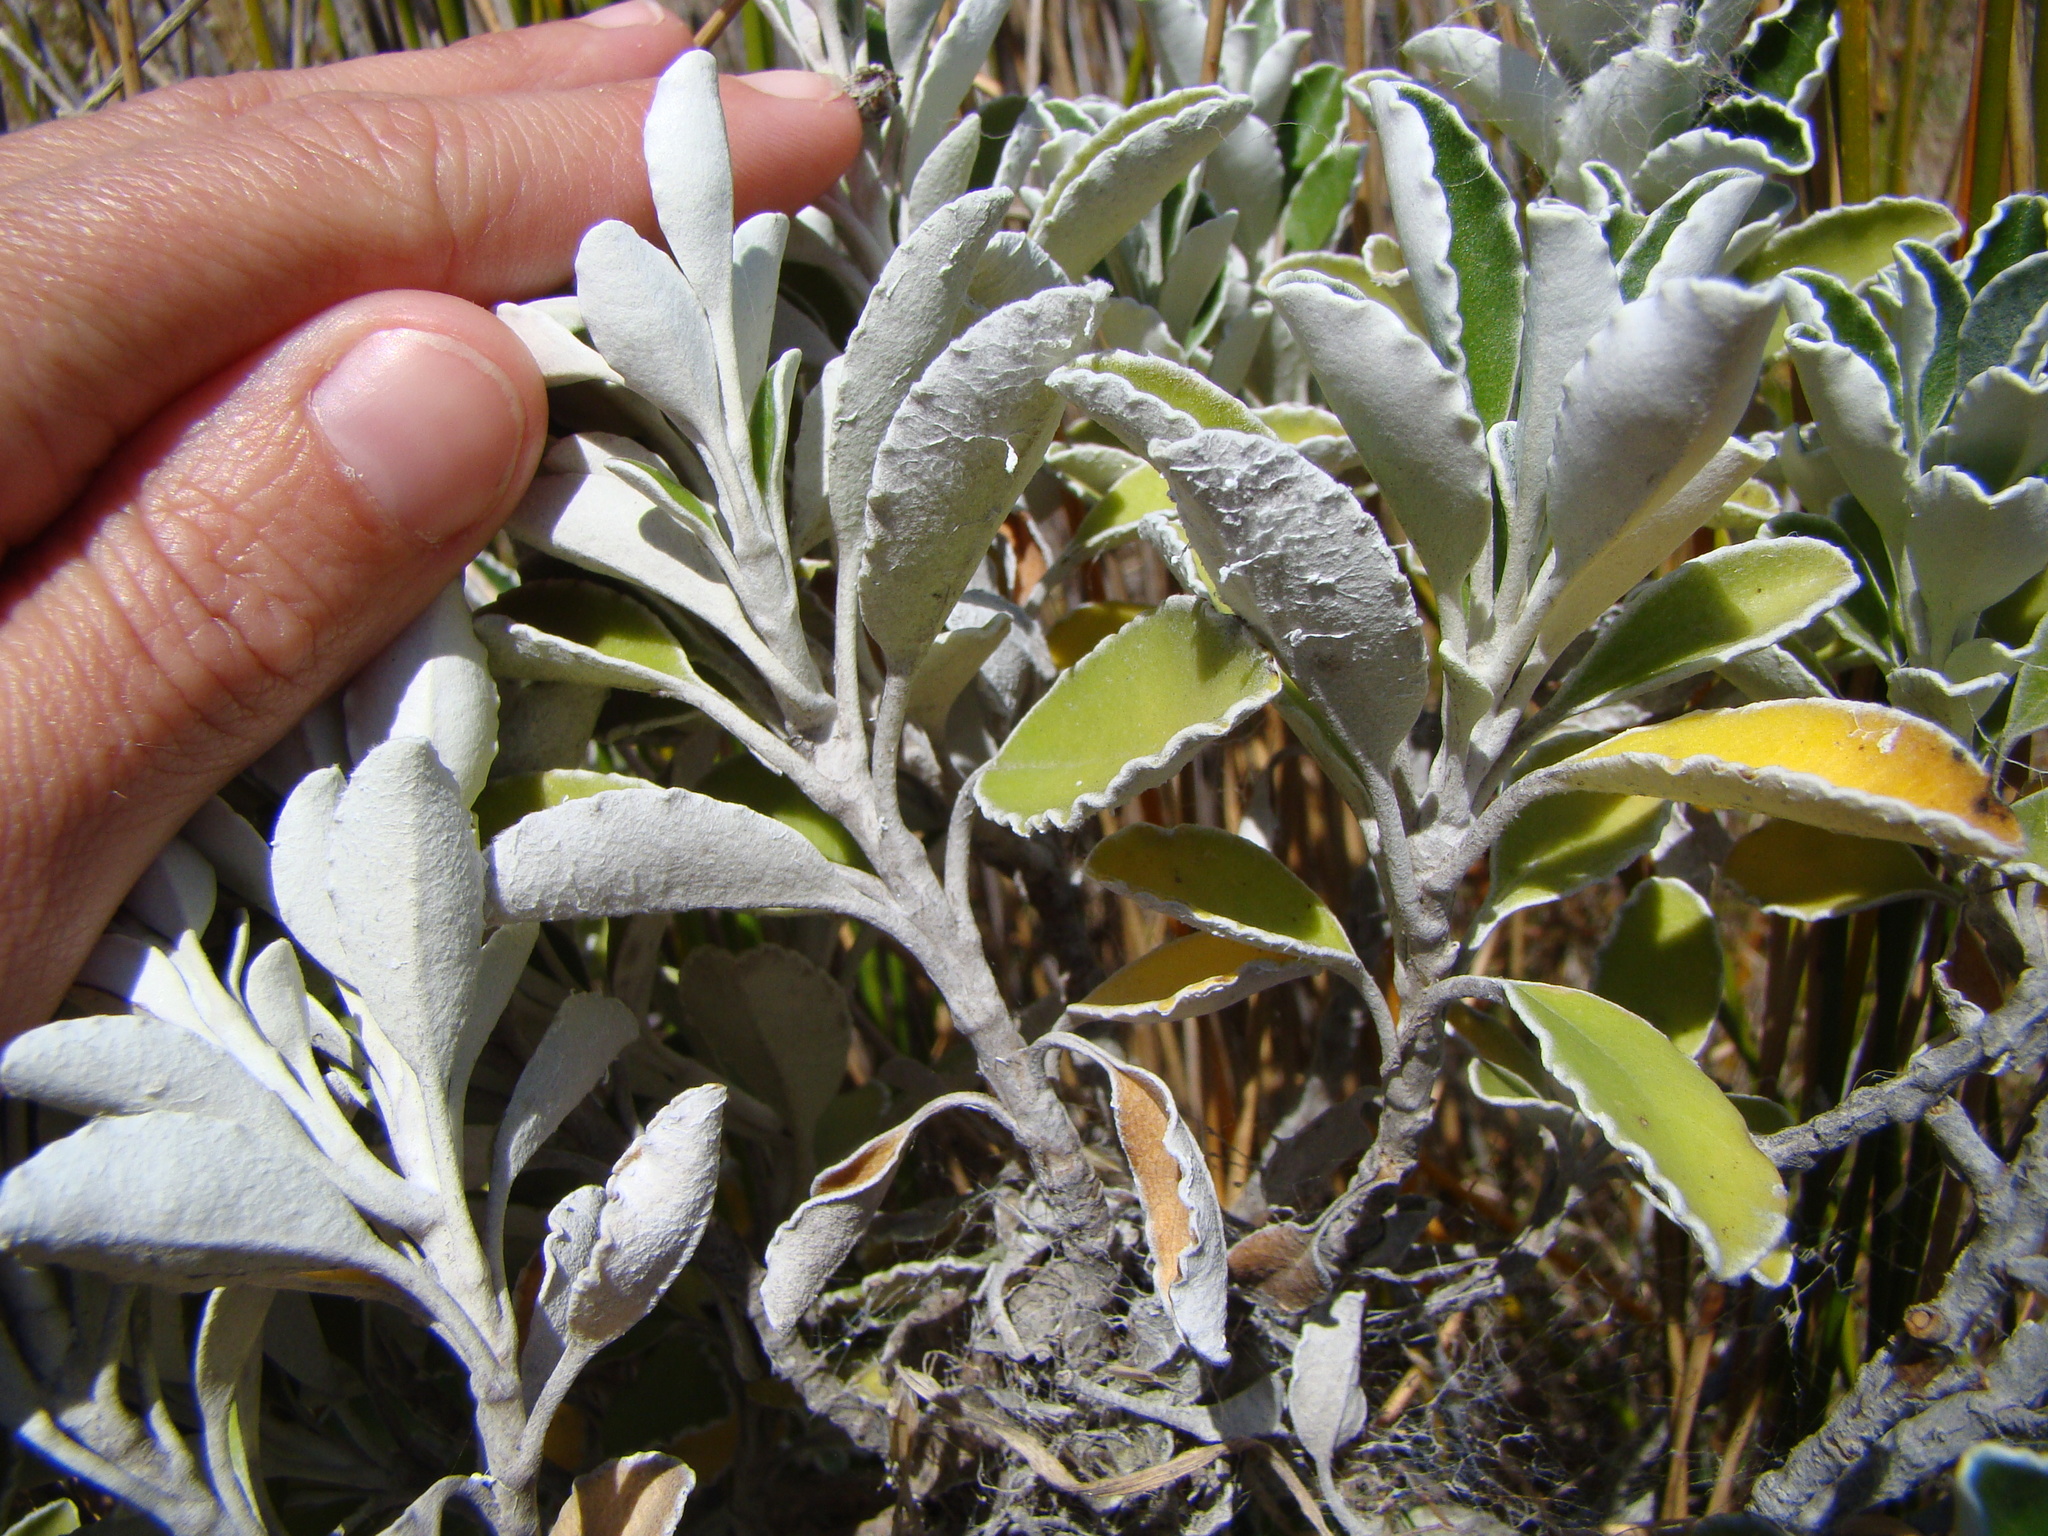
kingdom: Plantae
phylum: Tracheophyta
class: Magnoliopsida
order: Asterales
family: Asteraceae
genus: Brachyglottis
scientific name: Brachyglottis compacta
